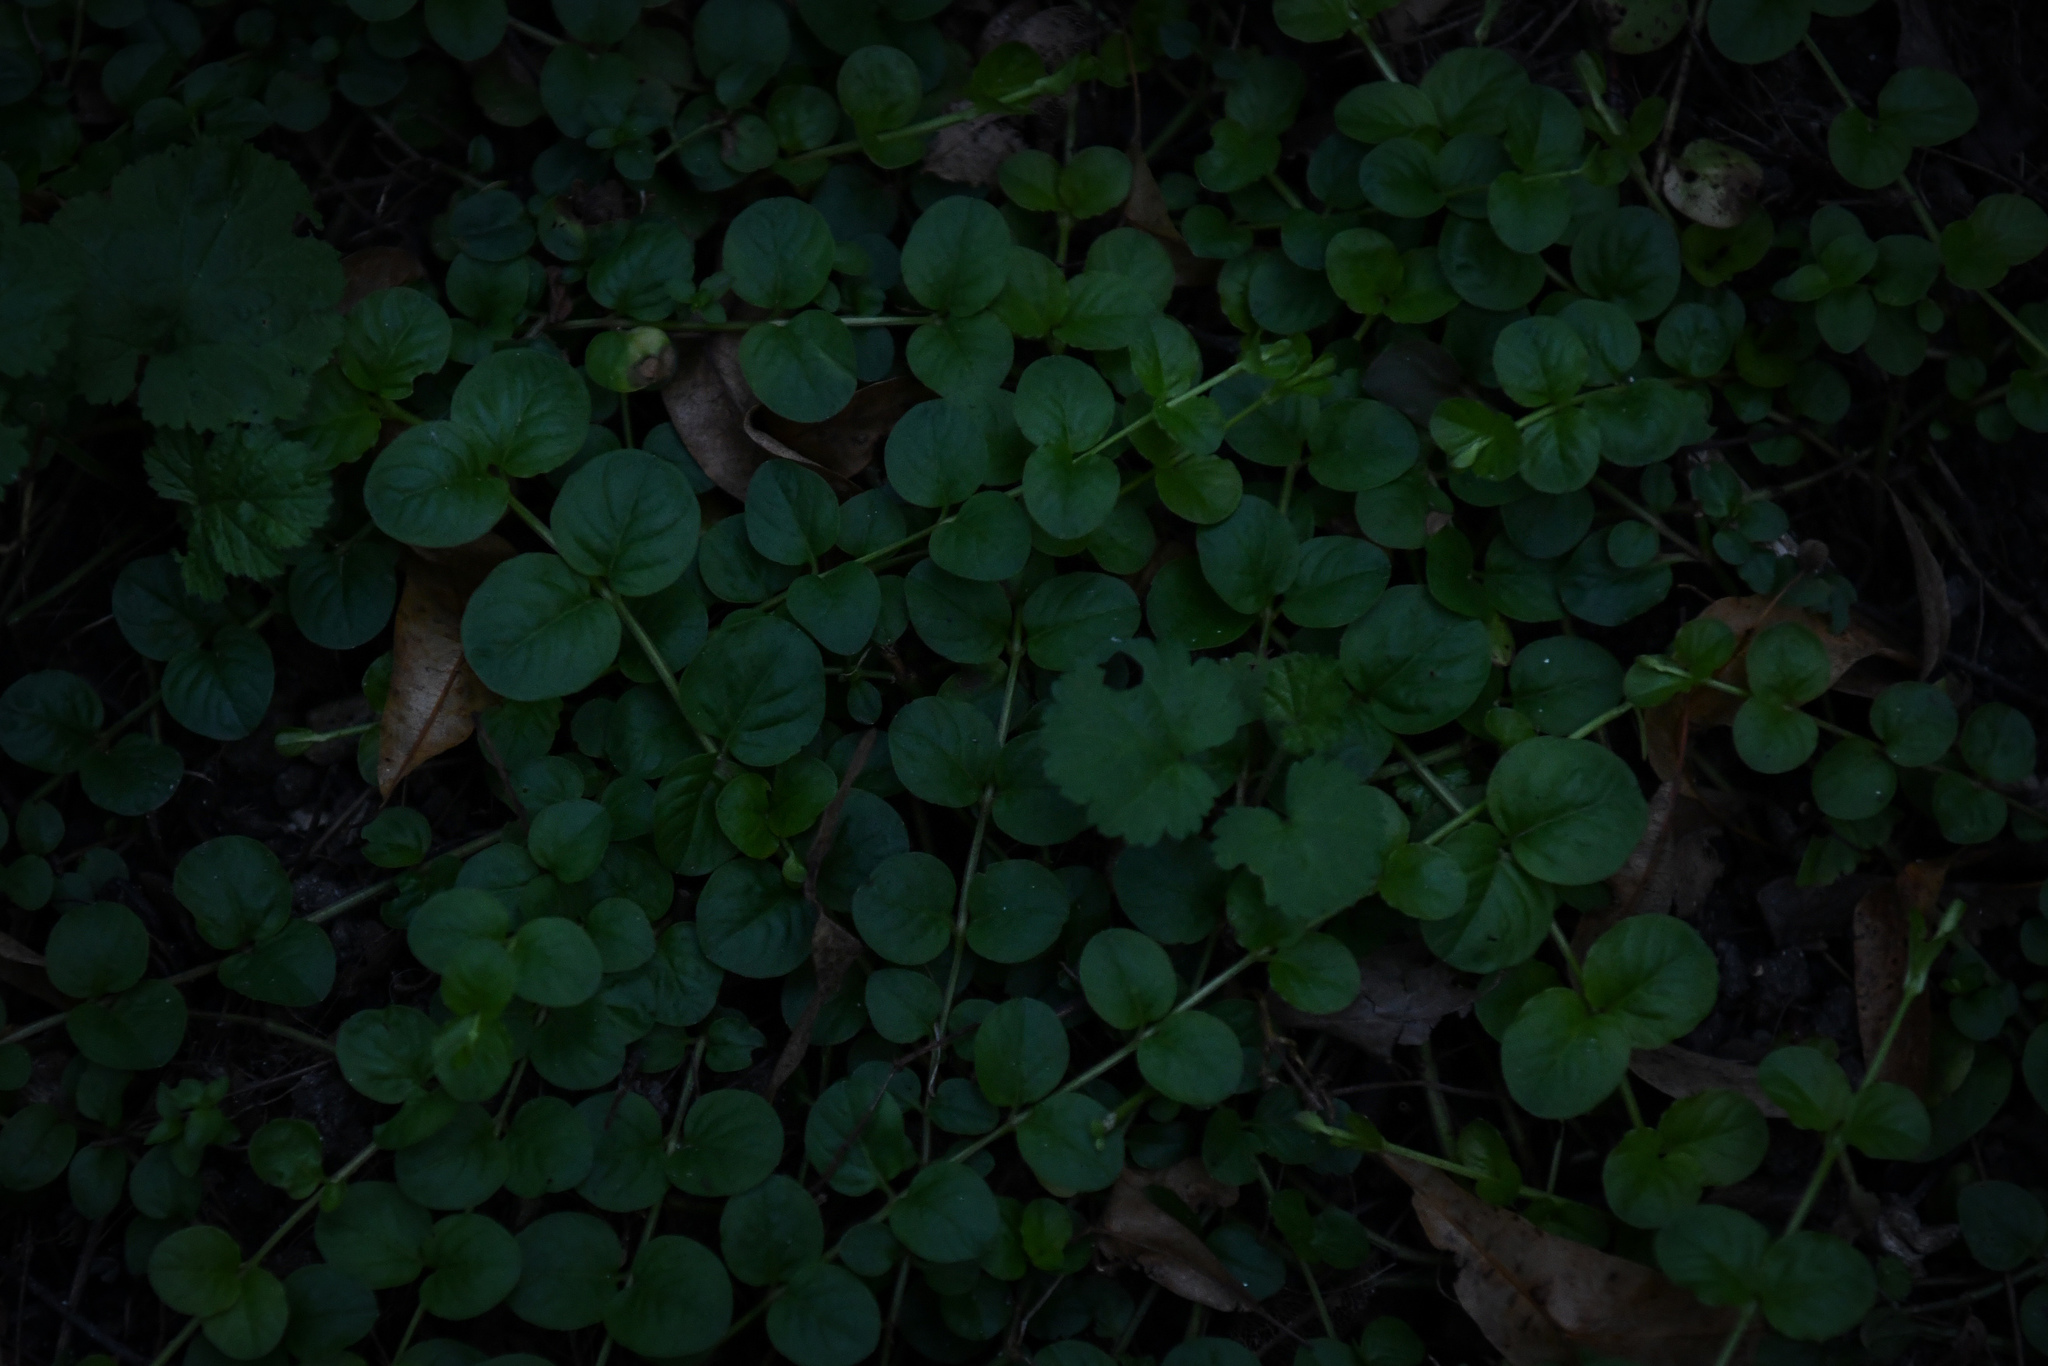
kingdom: Plantae
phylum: Tracheophyta
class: Magnoliopsida
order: Ericales
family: Primulaceae
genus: Lysimachia
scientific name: Lysimachia nummularia
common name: Moneywort
